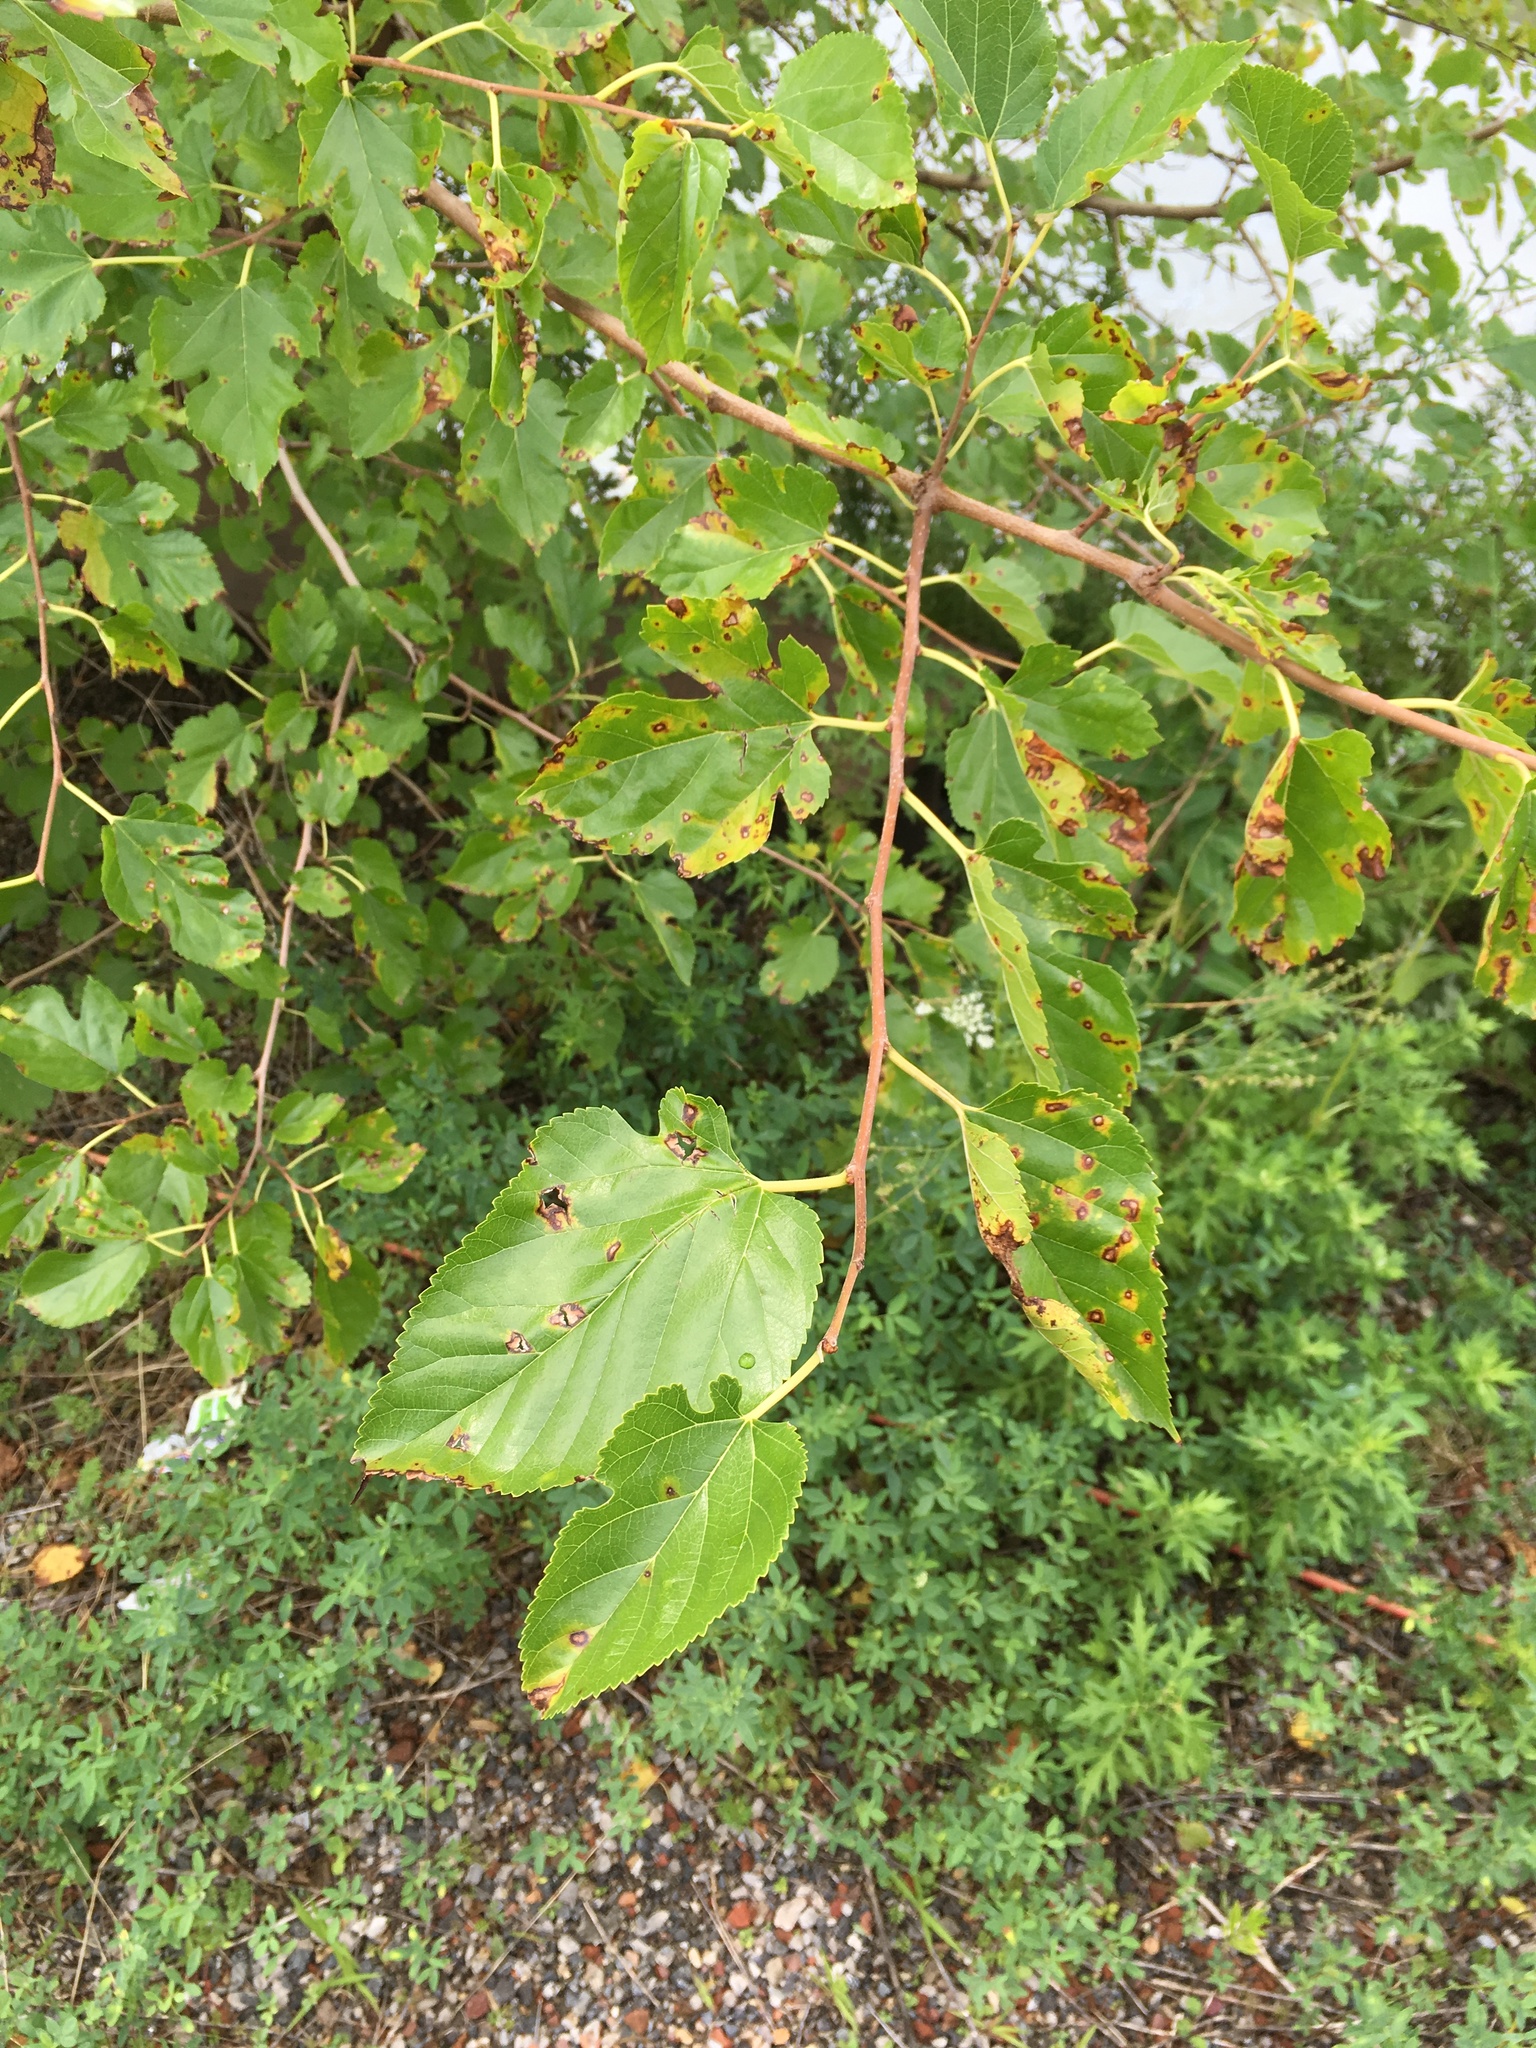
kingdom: Plantae
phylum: Tracheophyta
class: Magnoliopsida
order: Rosales
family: Moraceae
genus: Morus
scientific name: Morus alba
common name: White mulberry
